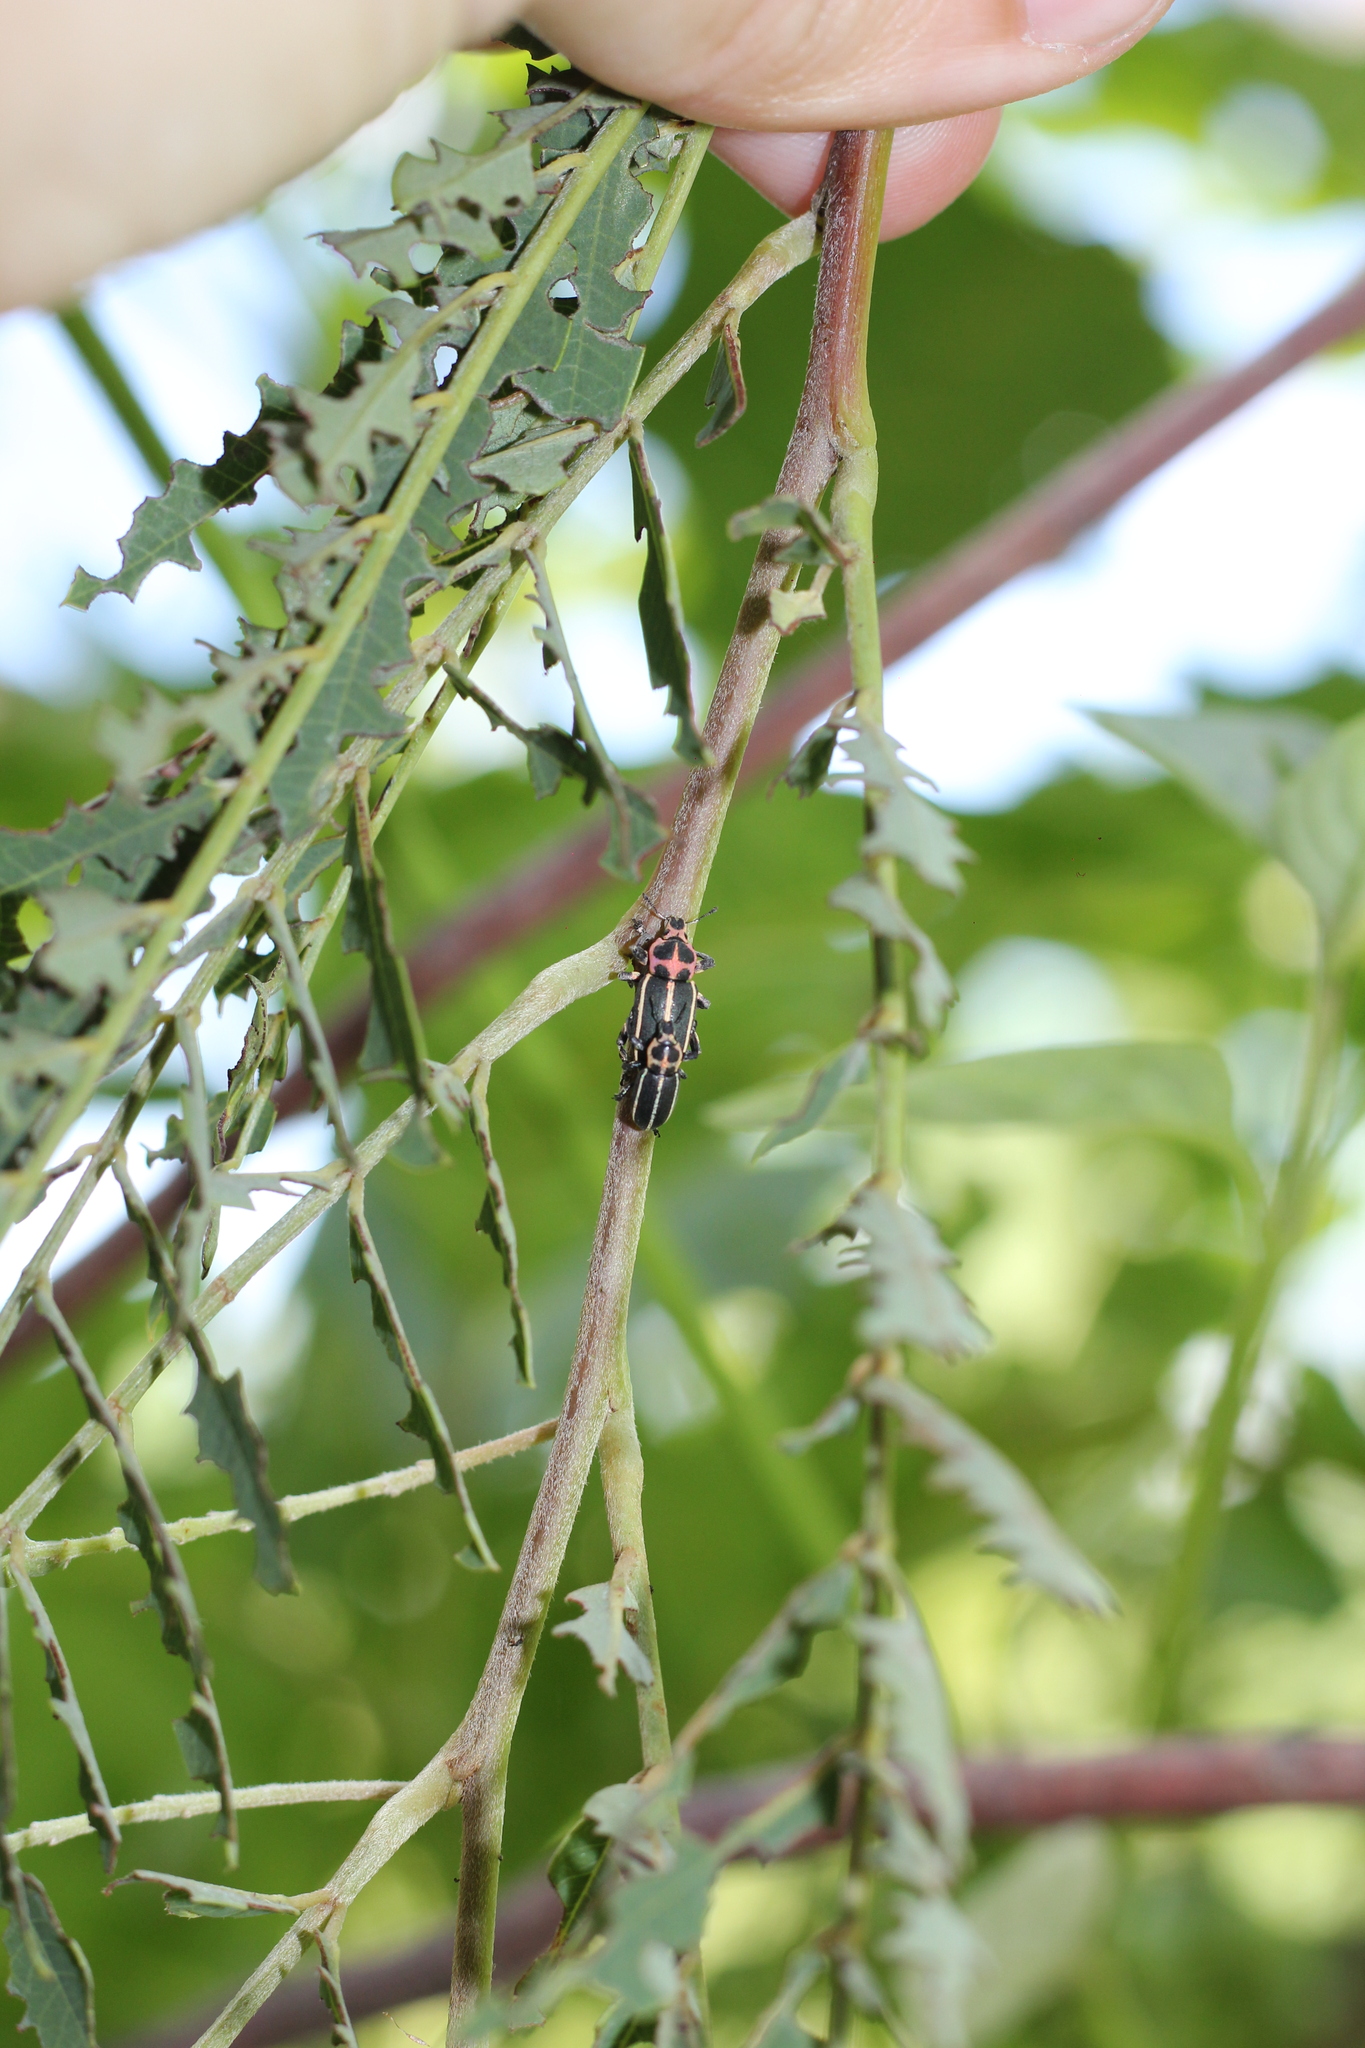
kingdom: Animalia
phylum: Arthropoda
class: Insecta
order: Coleoptera
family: Curculionidae
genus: Eudiagogus
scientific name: Eudiagogus episcopalis
